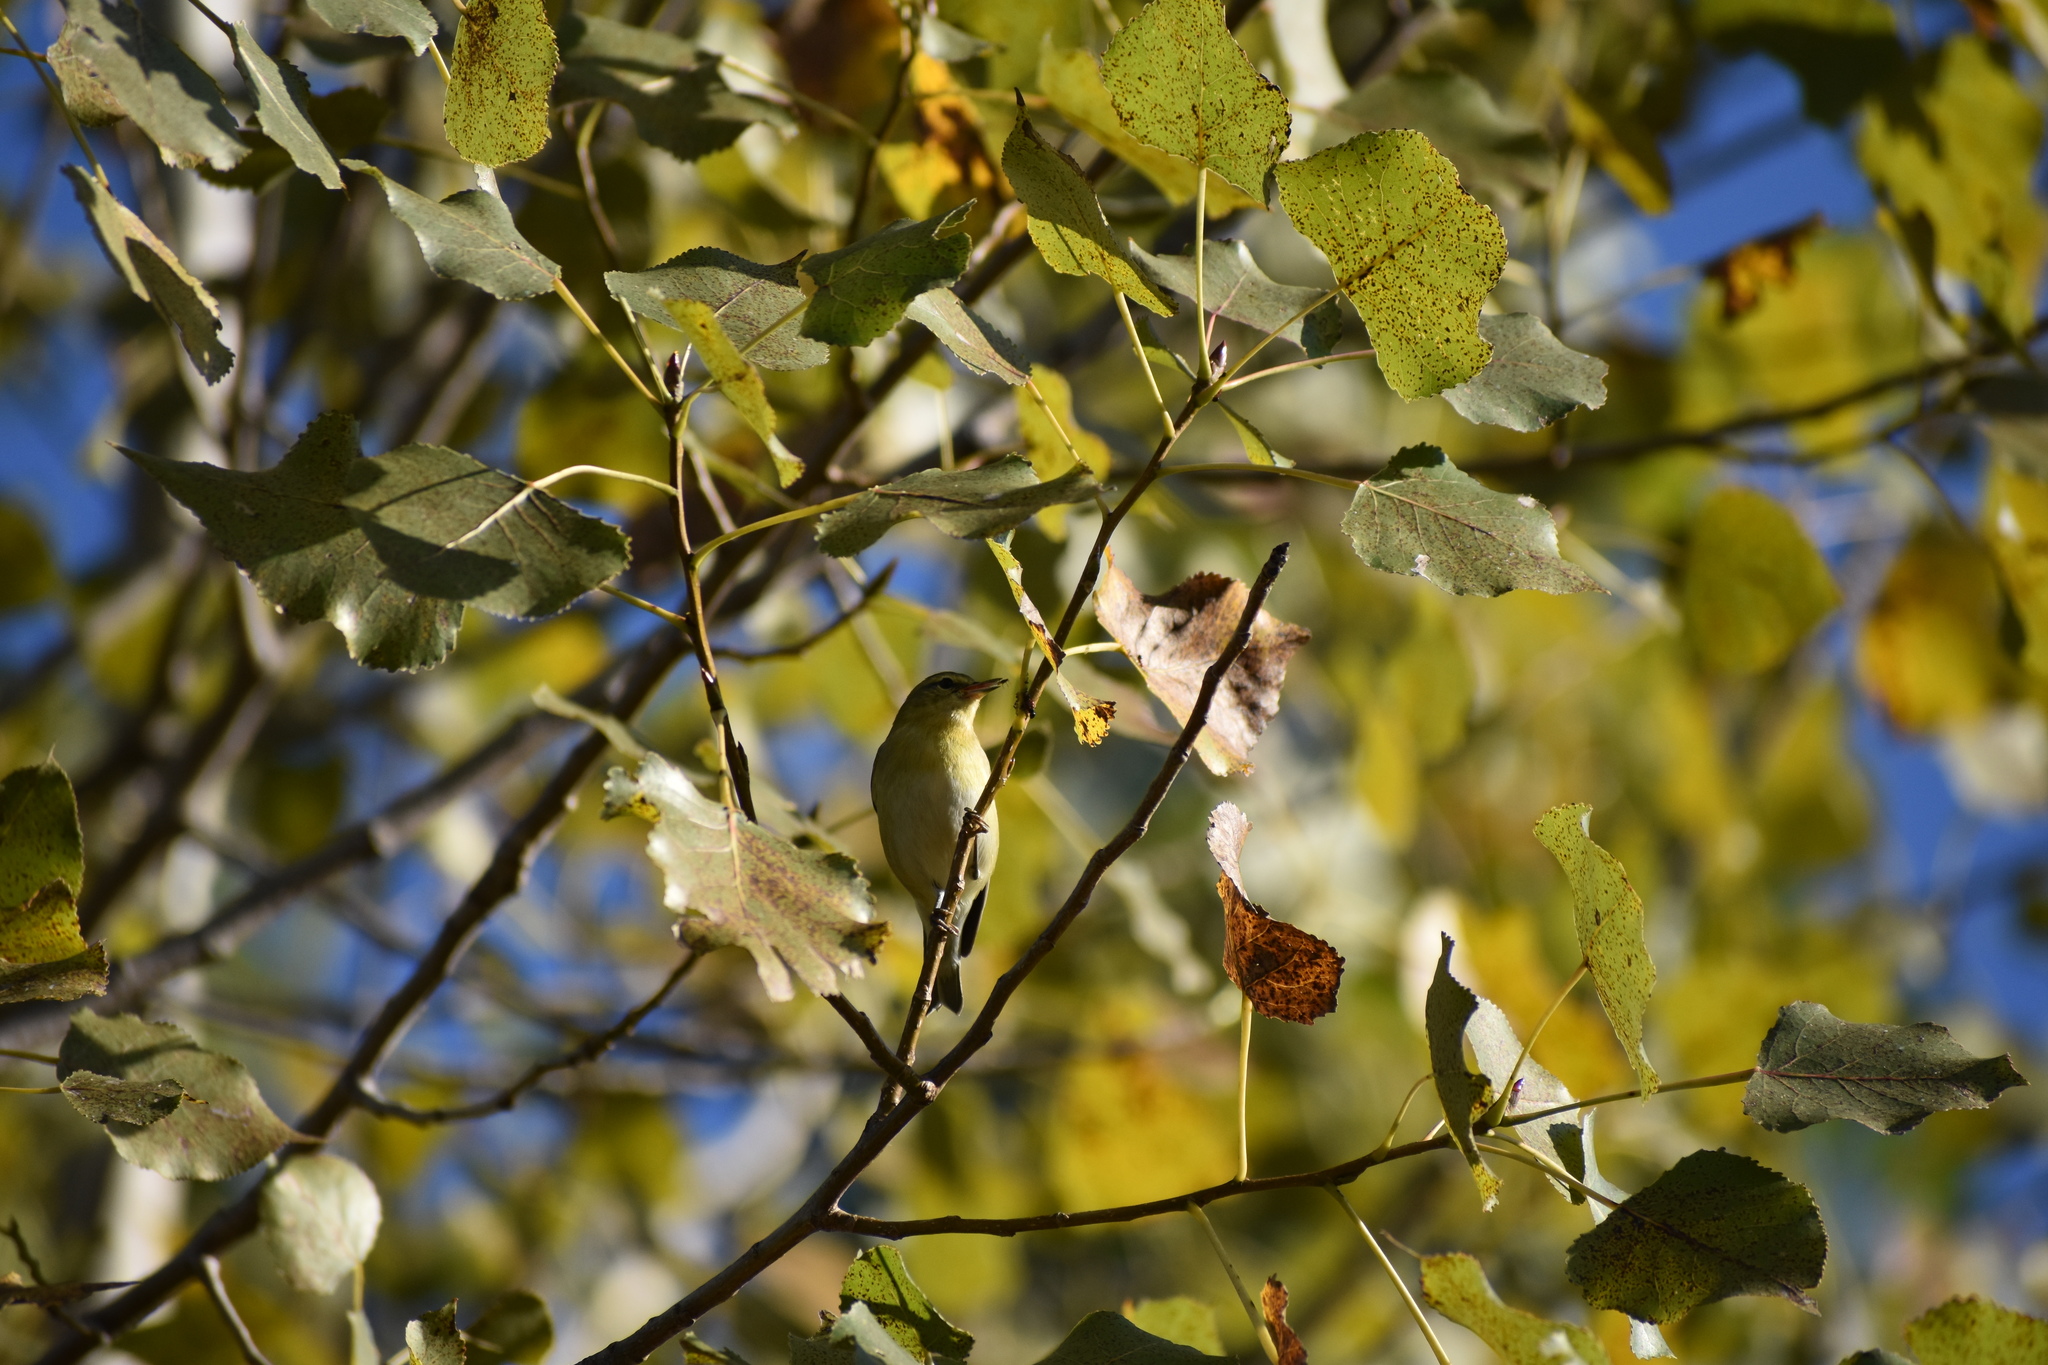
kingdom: Animalia
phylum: Chordata
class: Aves
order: Passeriformes
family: Parulidae
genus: Leiothlypis
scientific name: Leiothlypis peregrina
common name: Tennessee warbler
